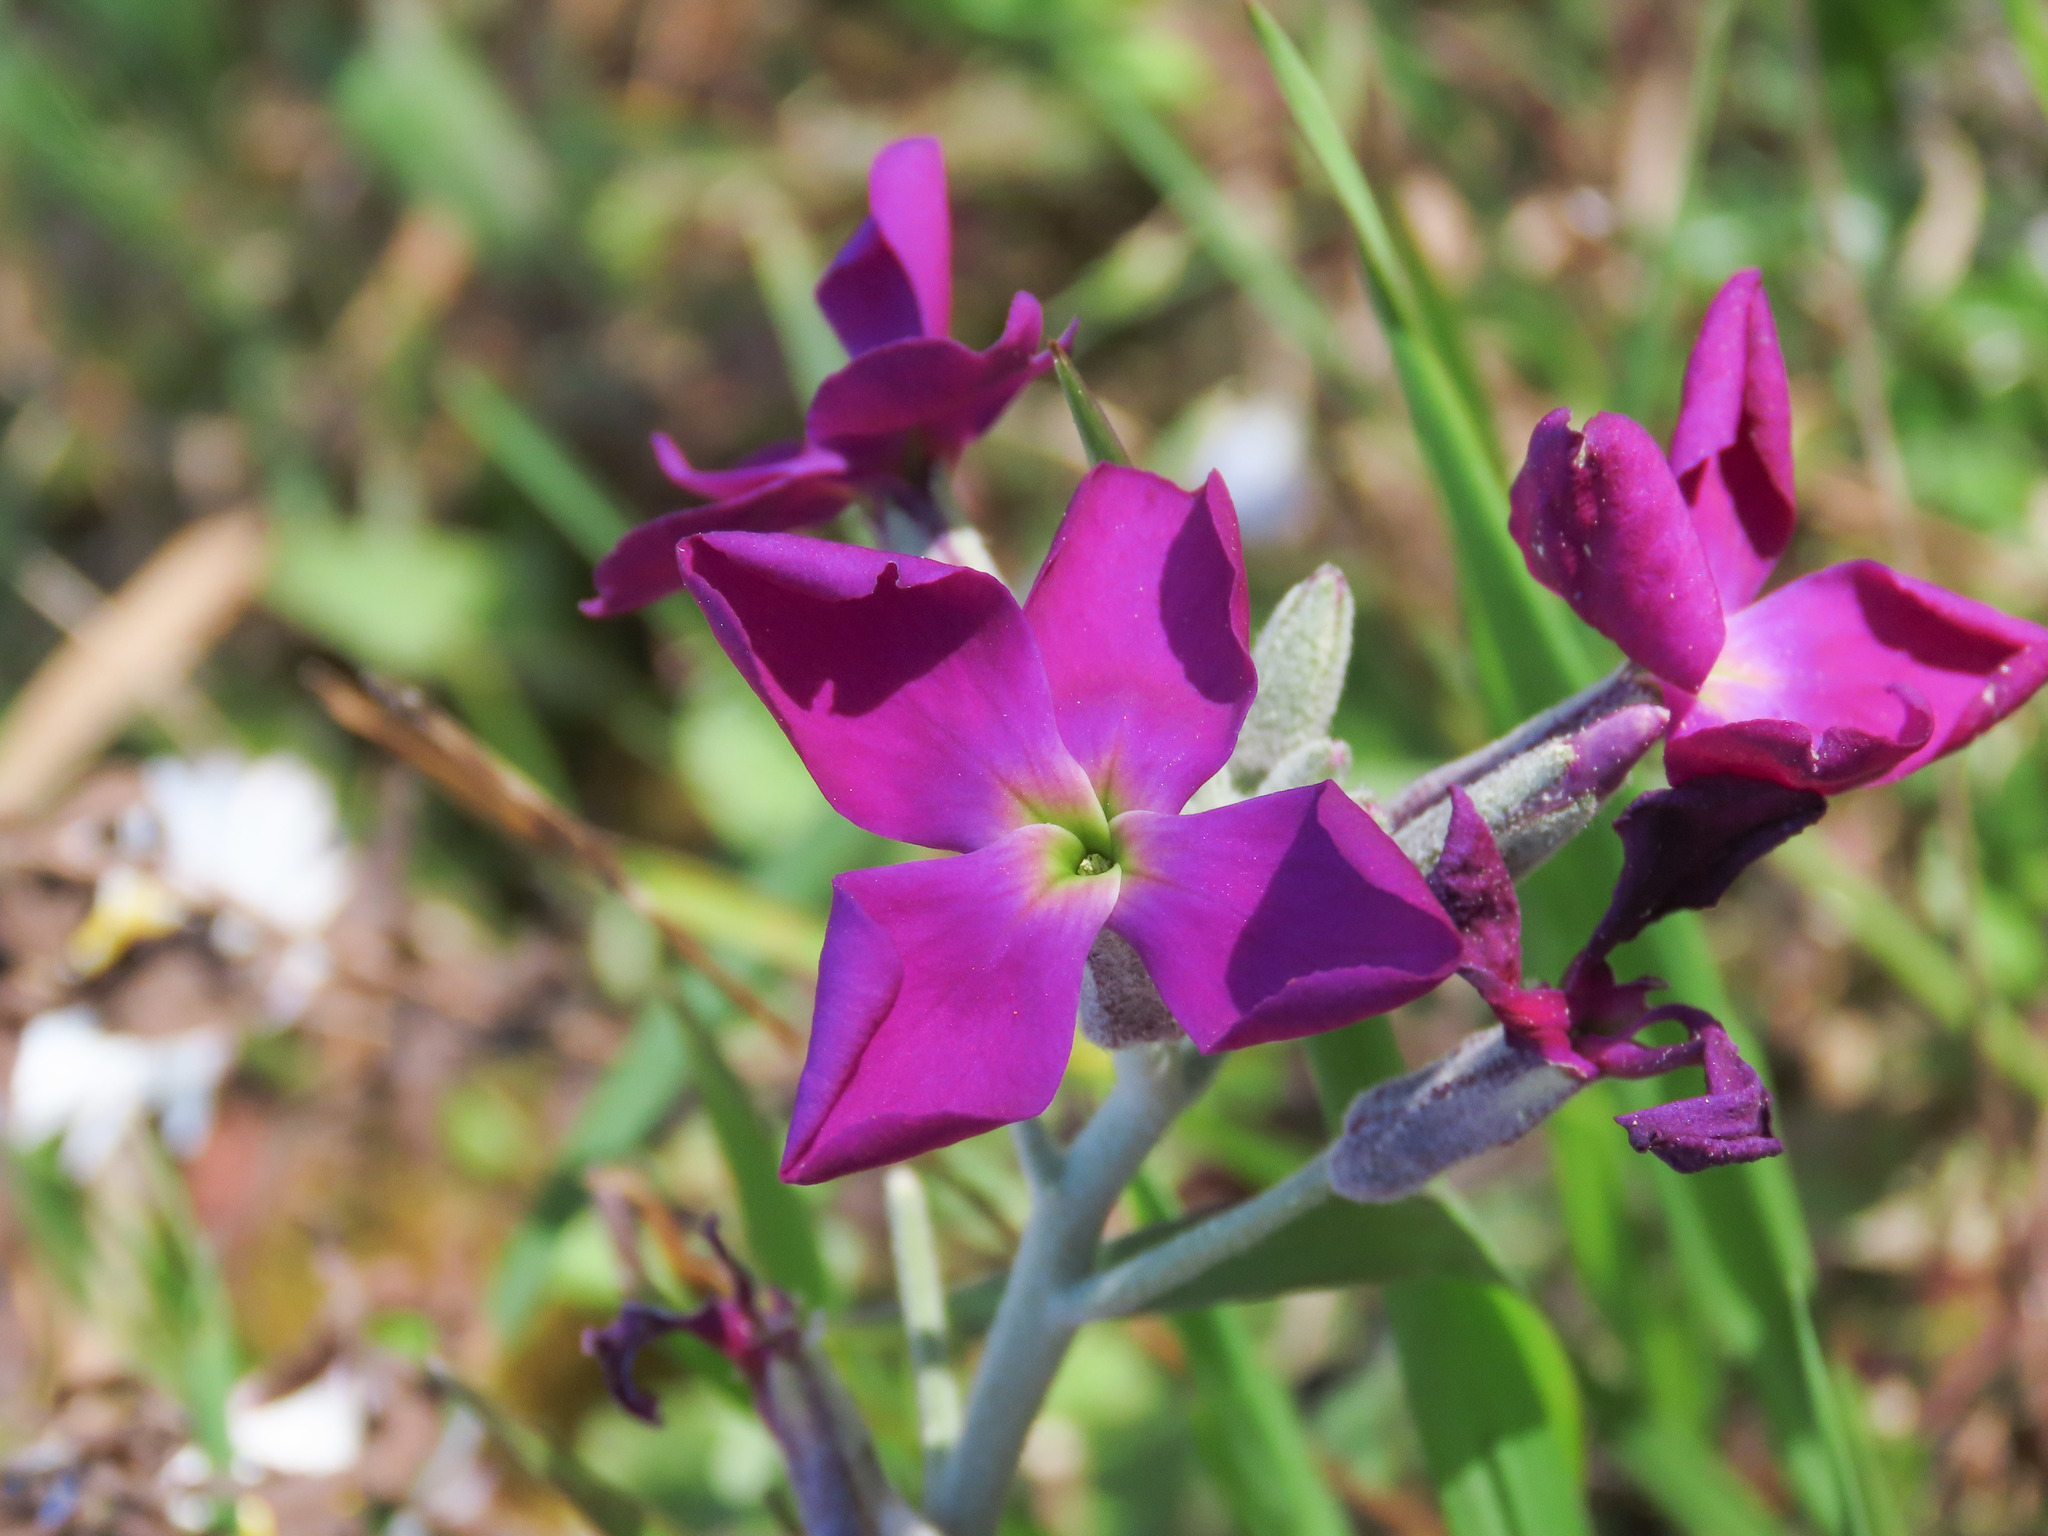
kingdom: Plantae
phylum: Tracheophyta
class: Magnoliopsida
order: Brassicales
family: Brassicaceae
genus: Matthiola
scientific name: Matthiola incana
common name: Hoary stock
